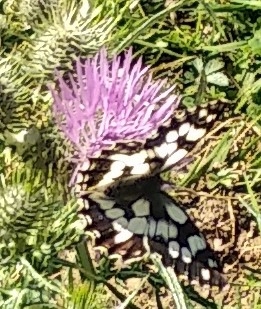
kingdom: Animalia
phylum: Arthropoda
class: Insecta
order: Lepidoptera
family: Nymphalidae
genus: Melanargia
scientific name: Melanargia galathea
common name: Marbled white
